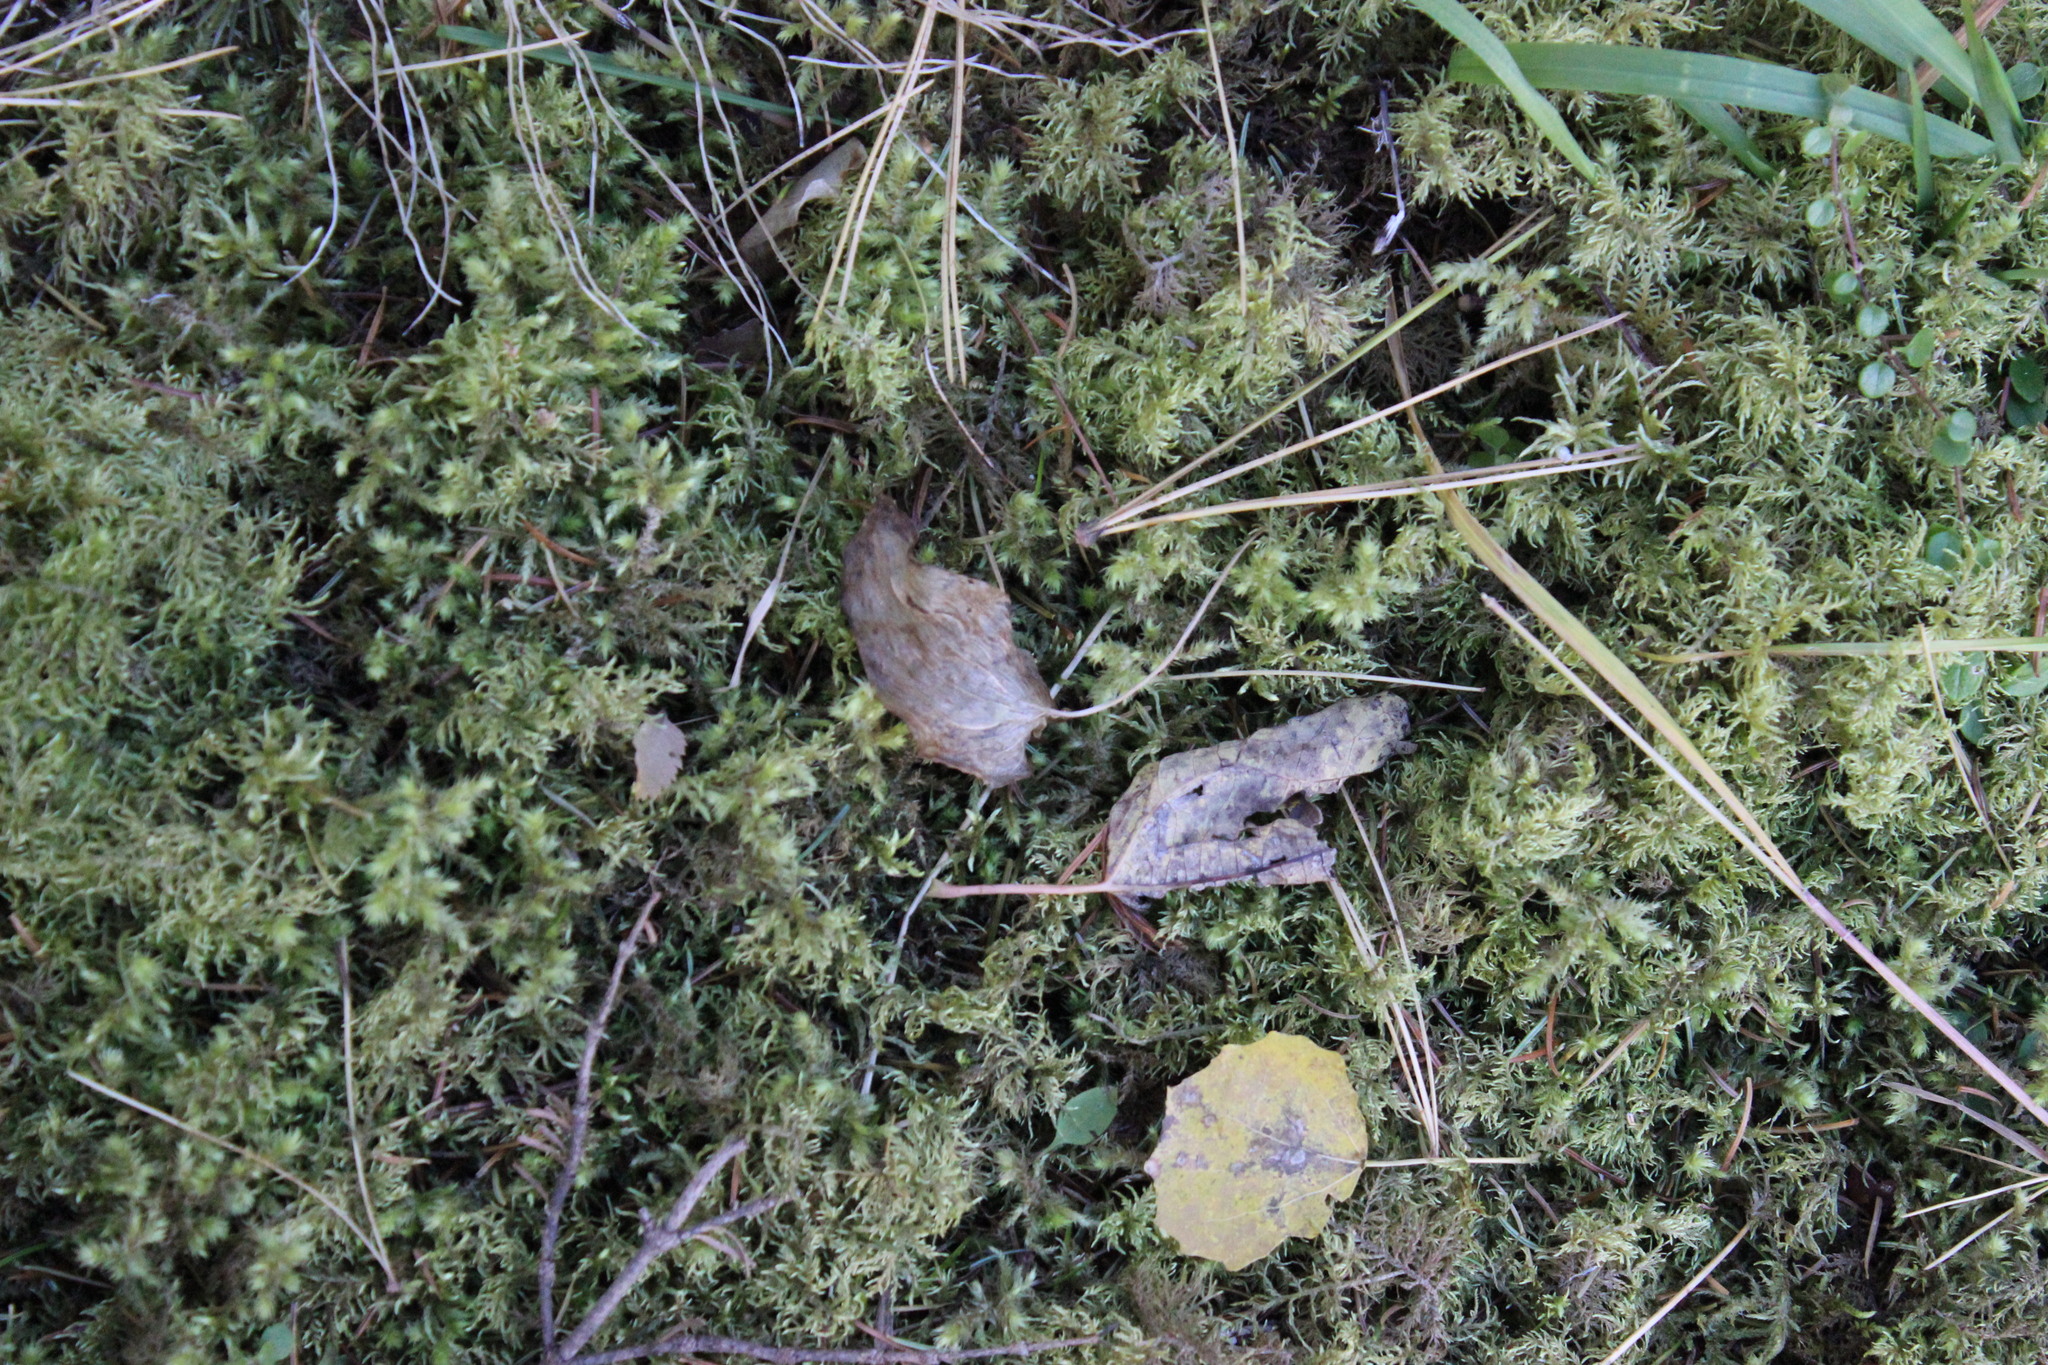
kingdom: Plantae
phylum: Bryophyta
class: Bryopsida
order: Hypnales
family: Hylocomiaceae
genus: Hylocomium
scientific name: Hylocomium splendens
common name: Stairstep moss
